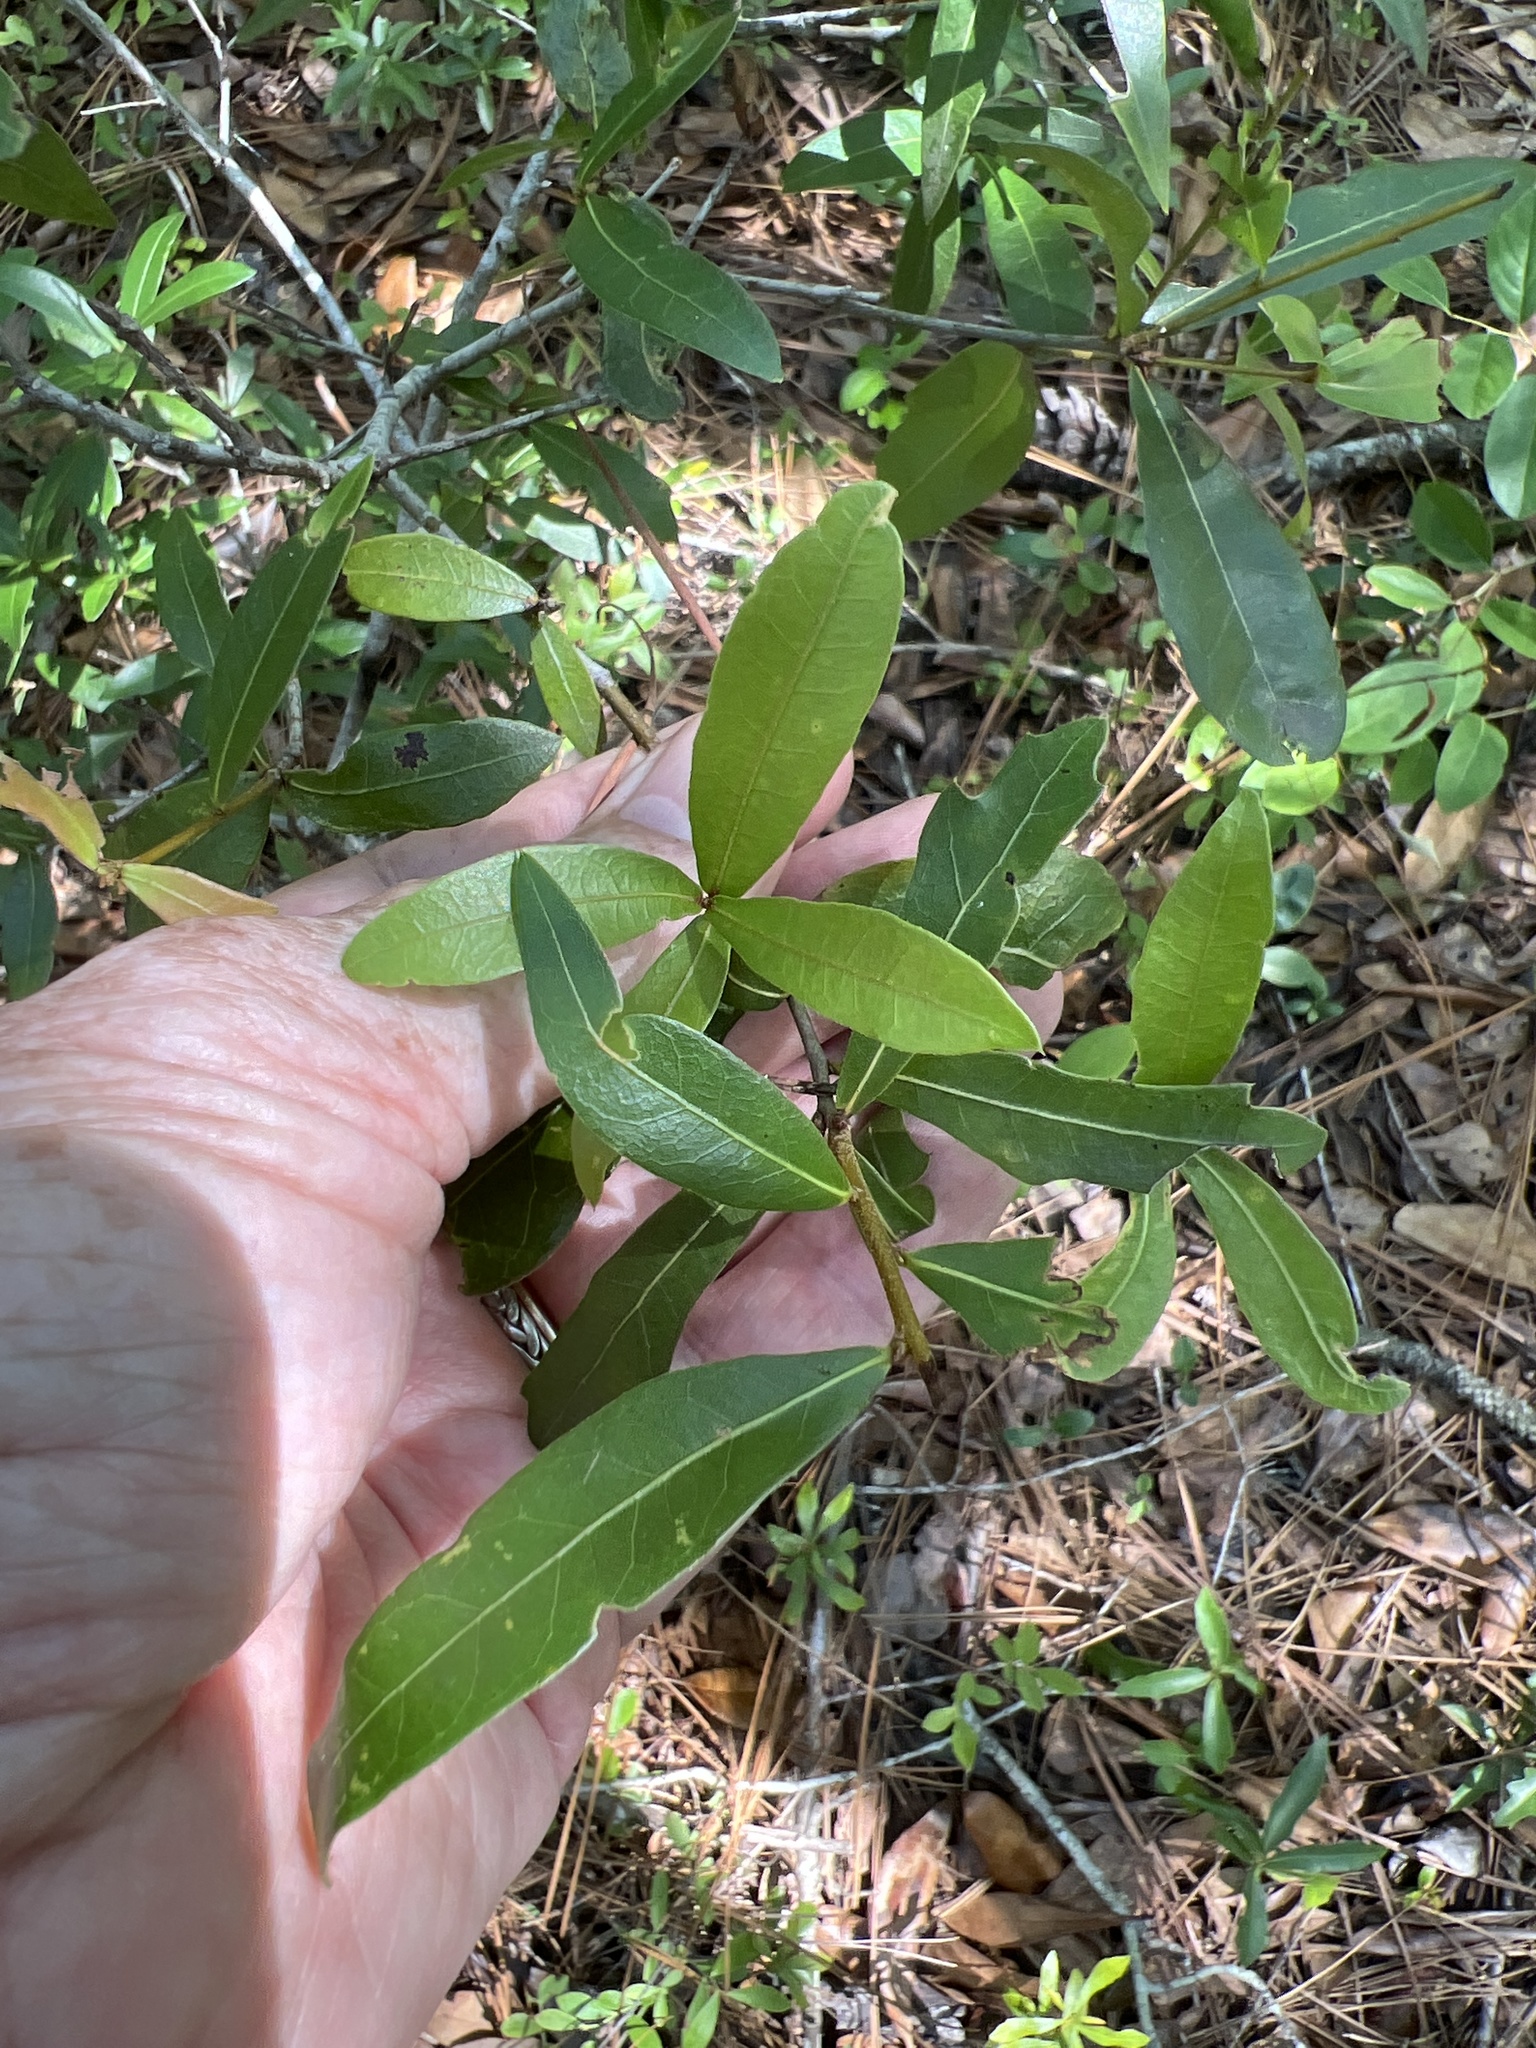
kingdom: Plantae
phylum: Tracheophyta
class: Magnoliopsida
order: Fagales
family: Fagaceae
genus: Quercus
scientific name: Quercus hemisphaerica
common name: Darlington oak
